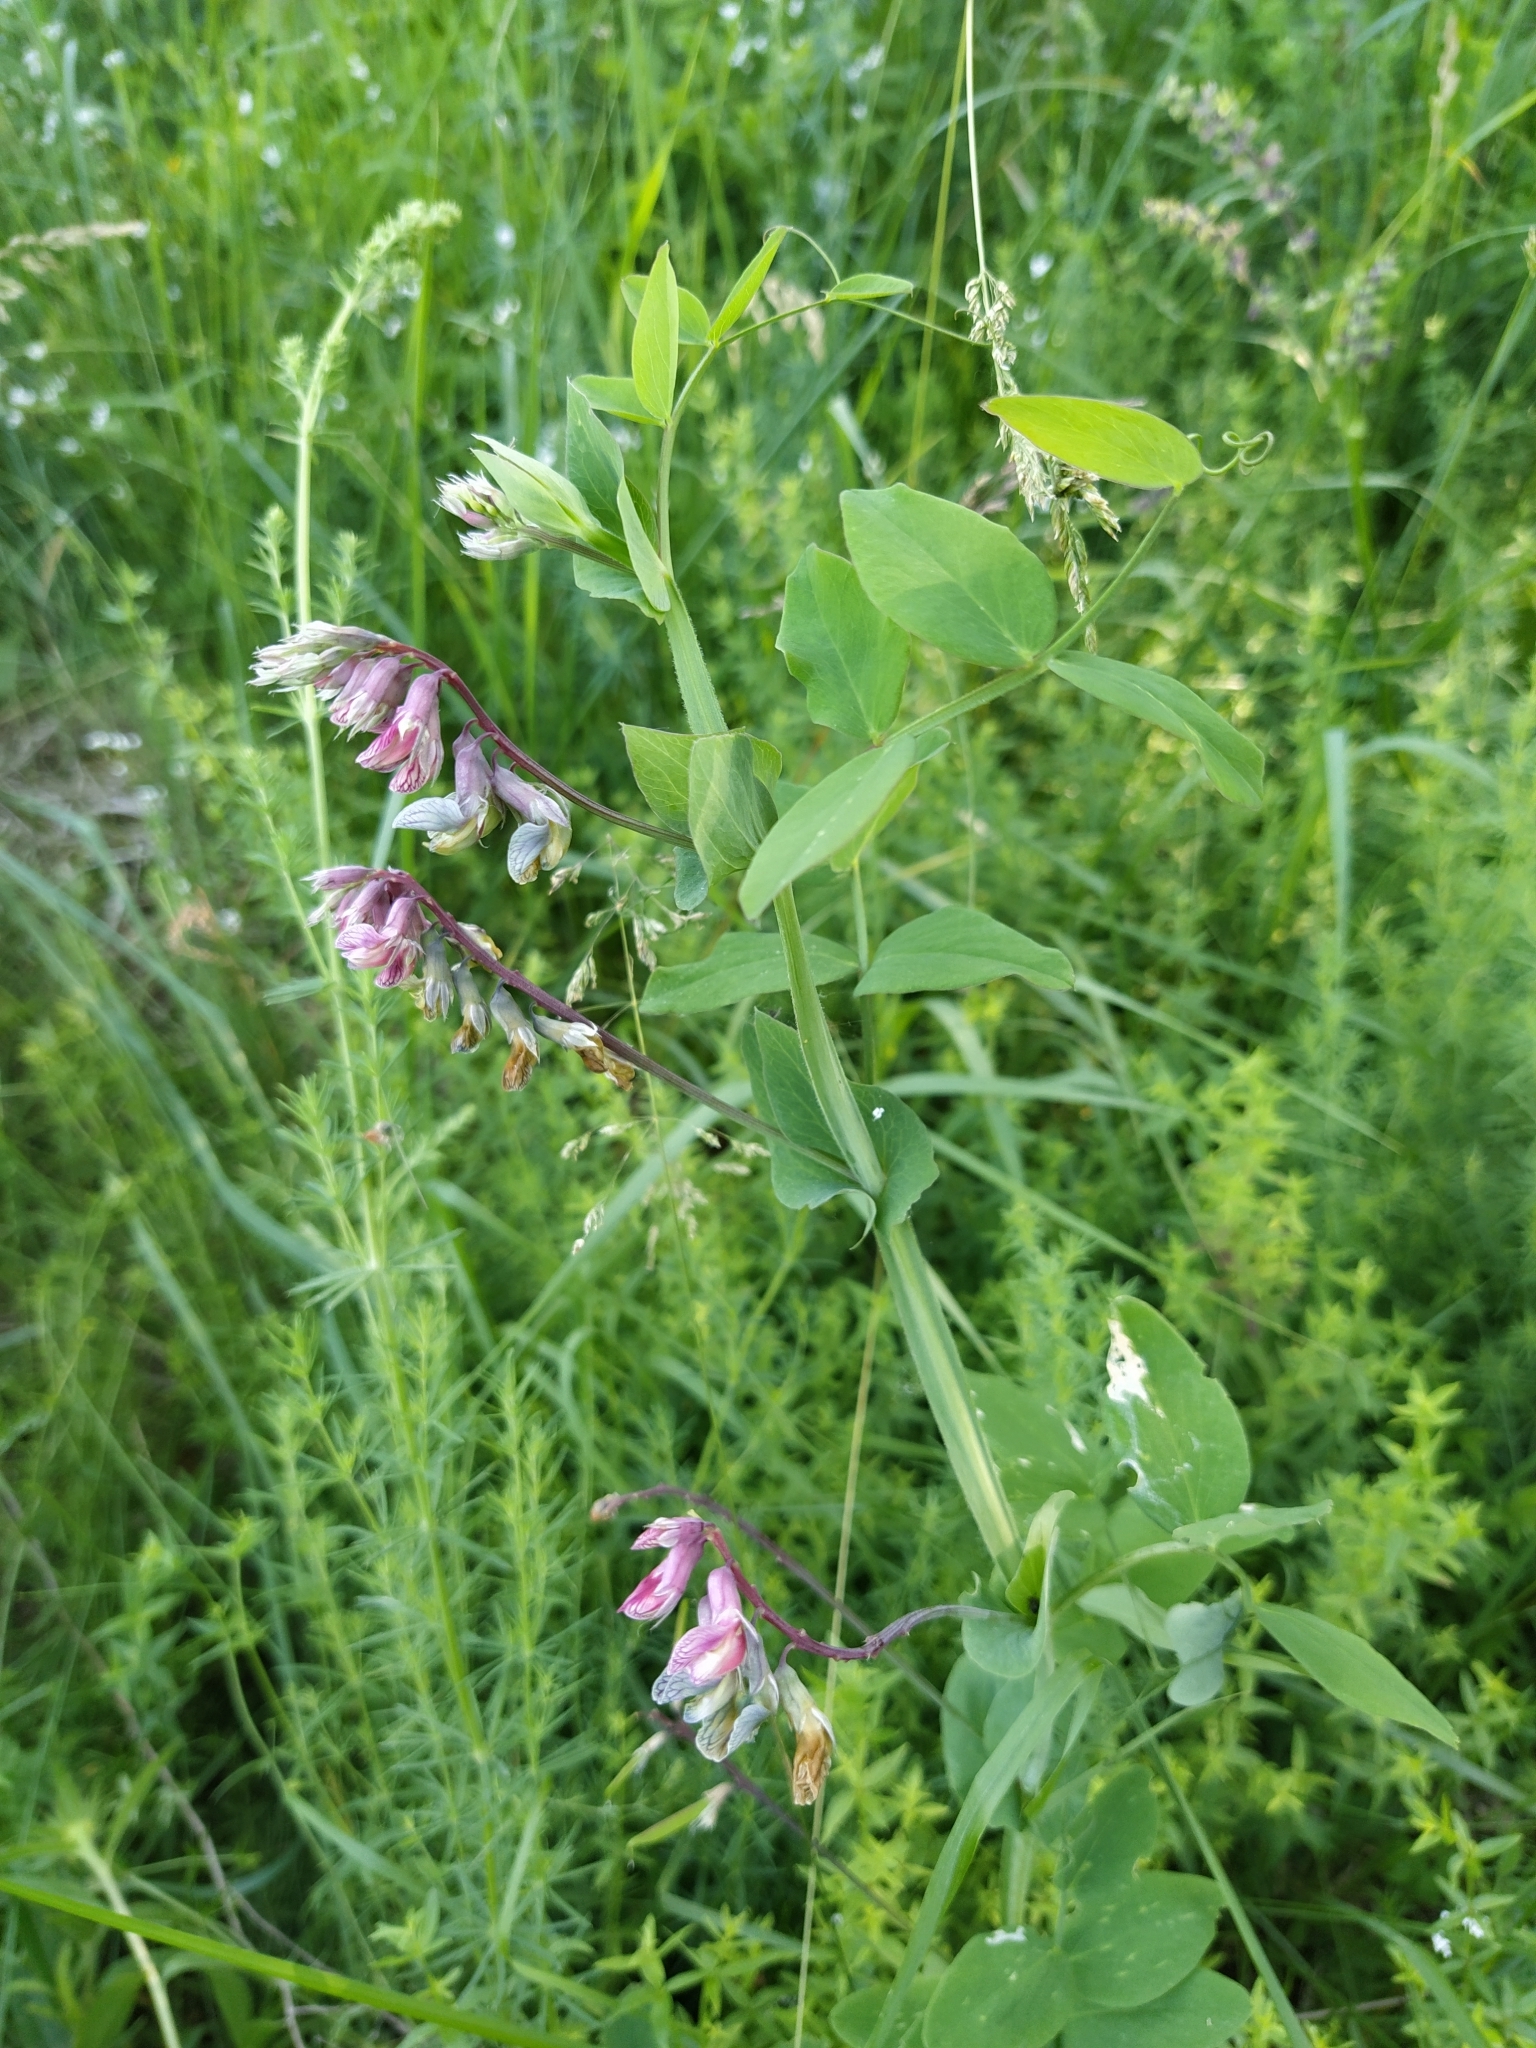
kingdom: Plantae
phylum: Tracheophyta
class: Magnoliopsida
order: Fabales
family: Fabaceae
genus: Lathyrus
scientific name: Lathyrus pisiformis
